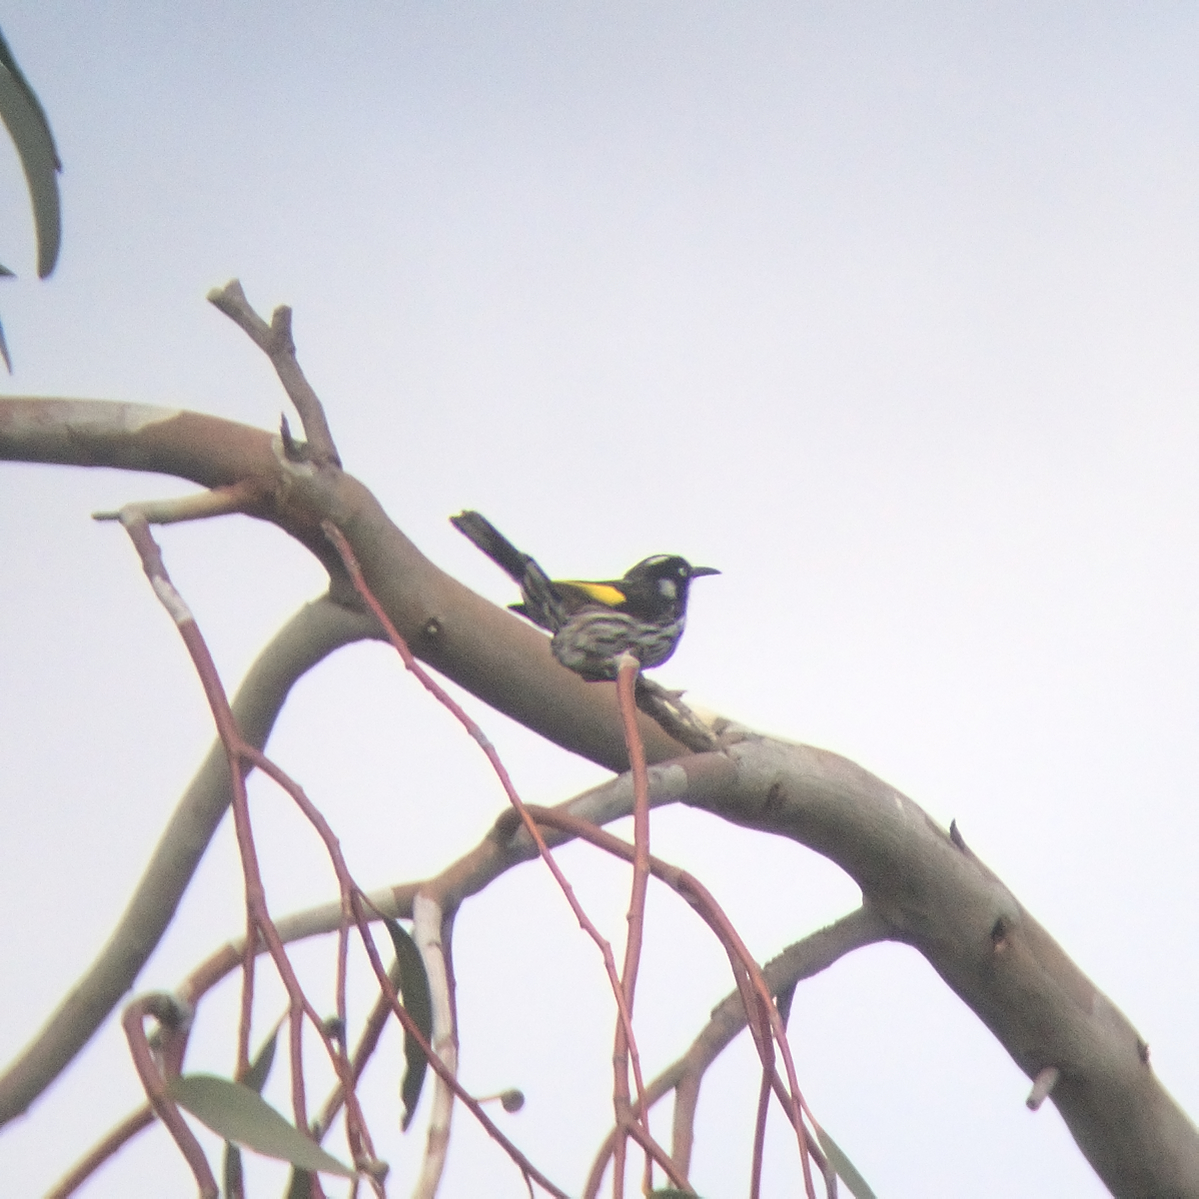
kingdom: Animalia
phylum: Chordata
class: Aves
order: Passeriformes
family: Meliphagidae
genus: Phylidonyris
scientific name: Phylidonyris novaehollandiae
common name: New holland honeyeater
